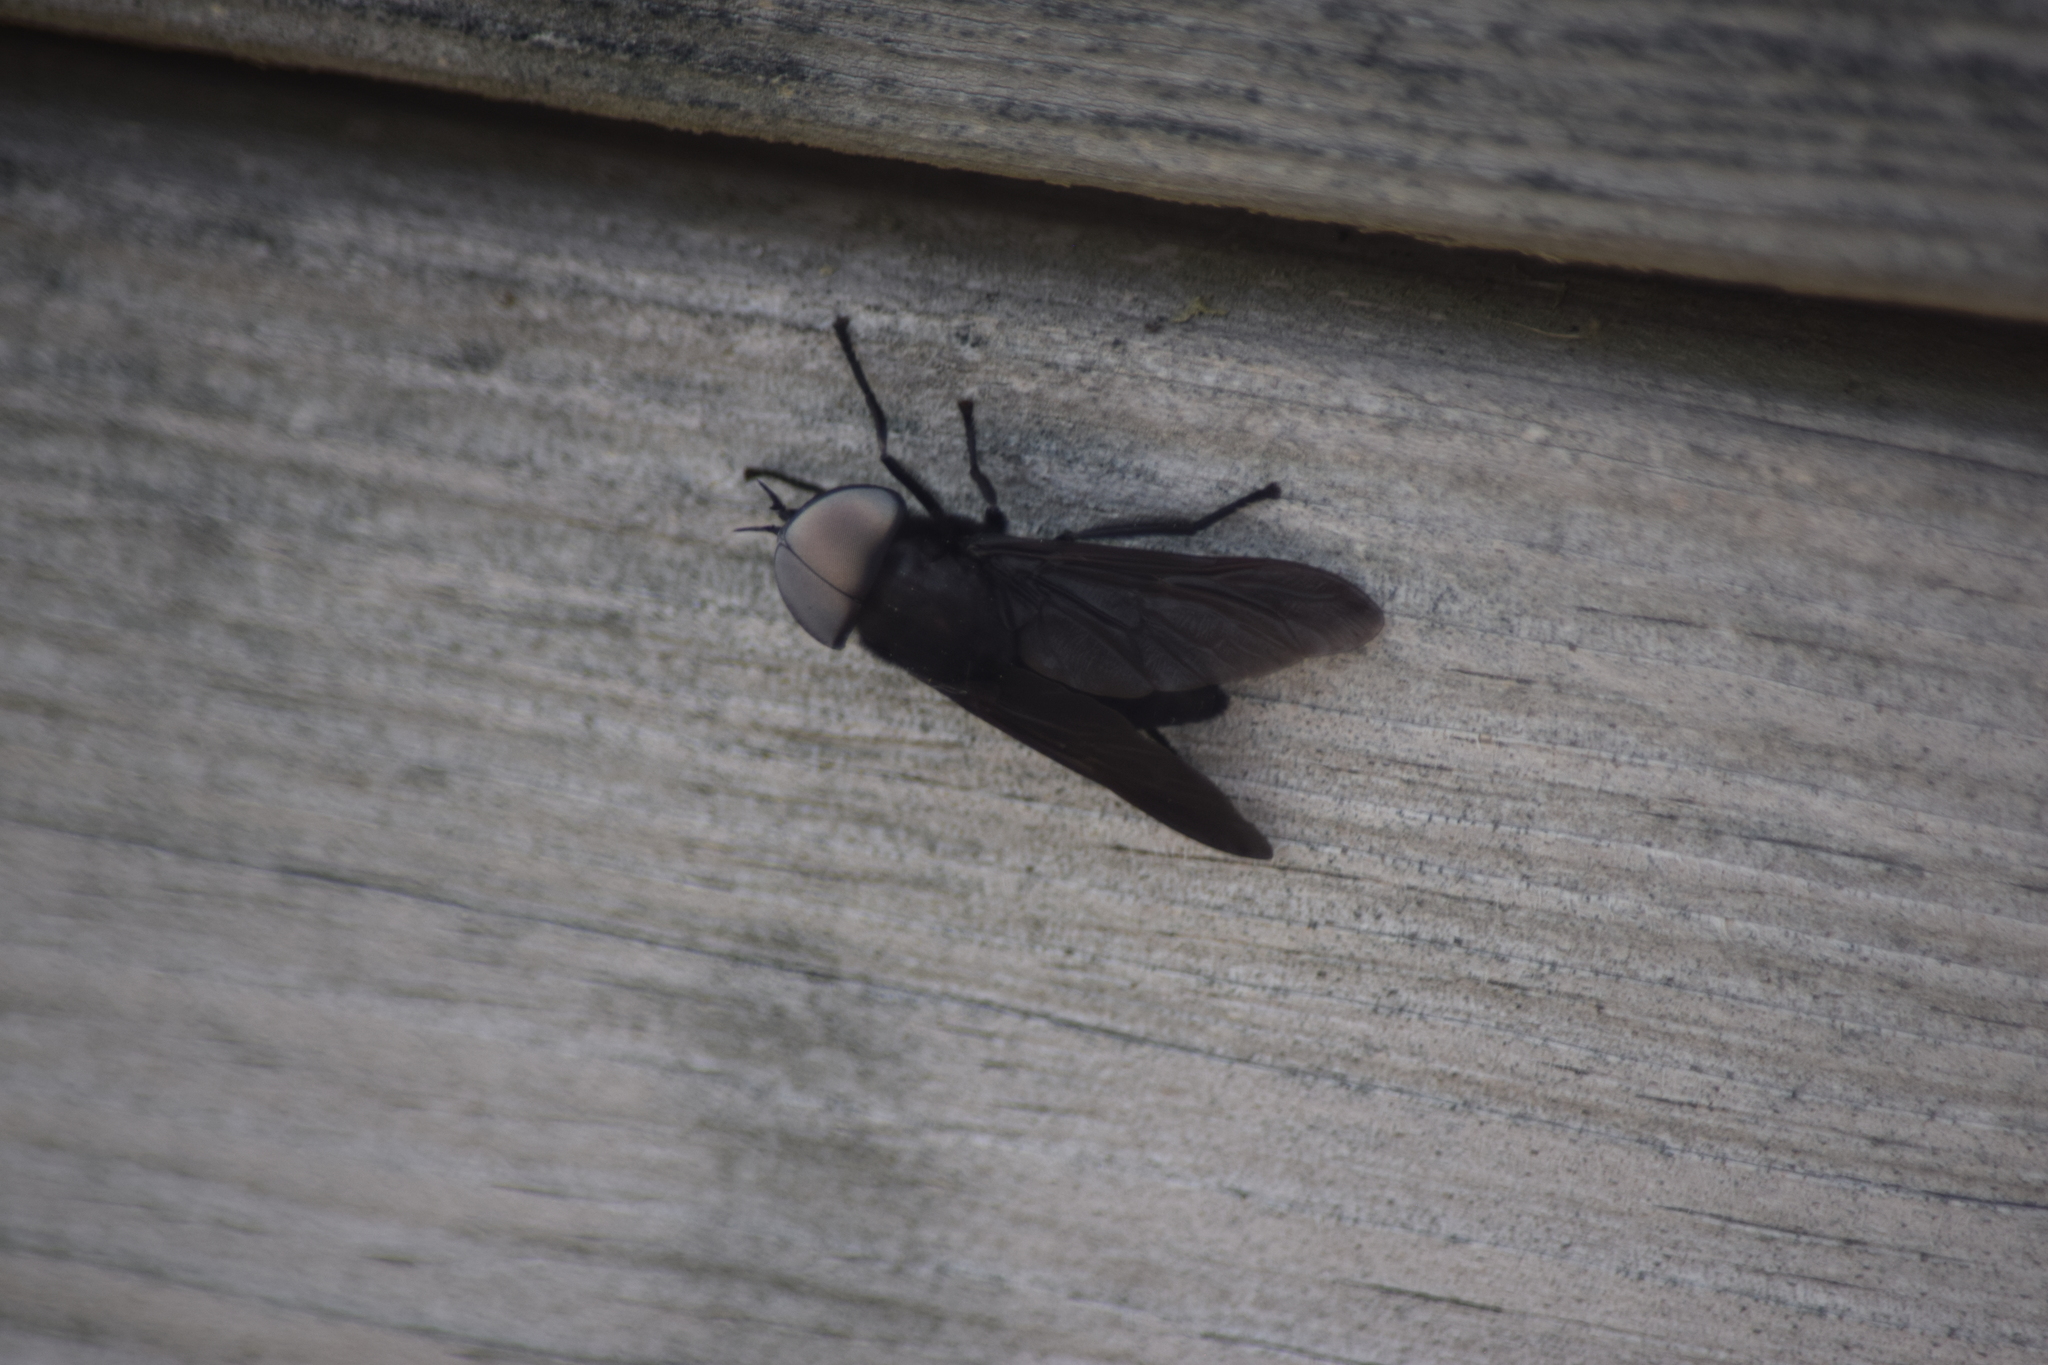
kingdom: Animalia
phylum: Arthropoda
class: Insecta
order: Diptera
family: Tabanidae
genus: Tabanus
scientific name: Tabanus atratus
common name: Black horse fly
